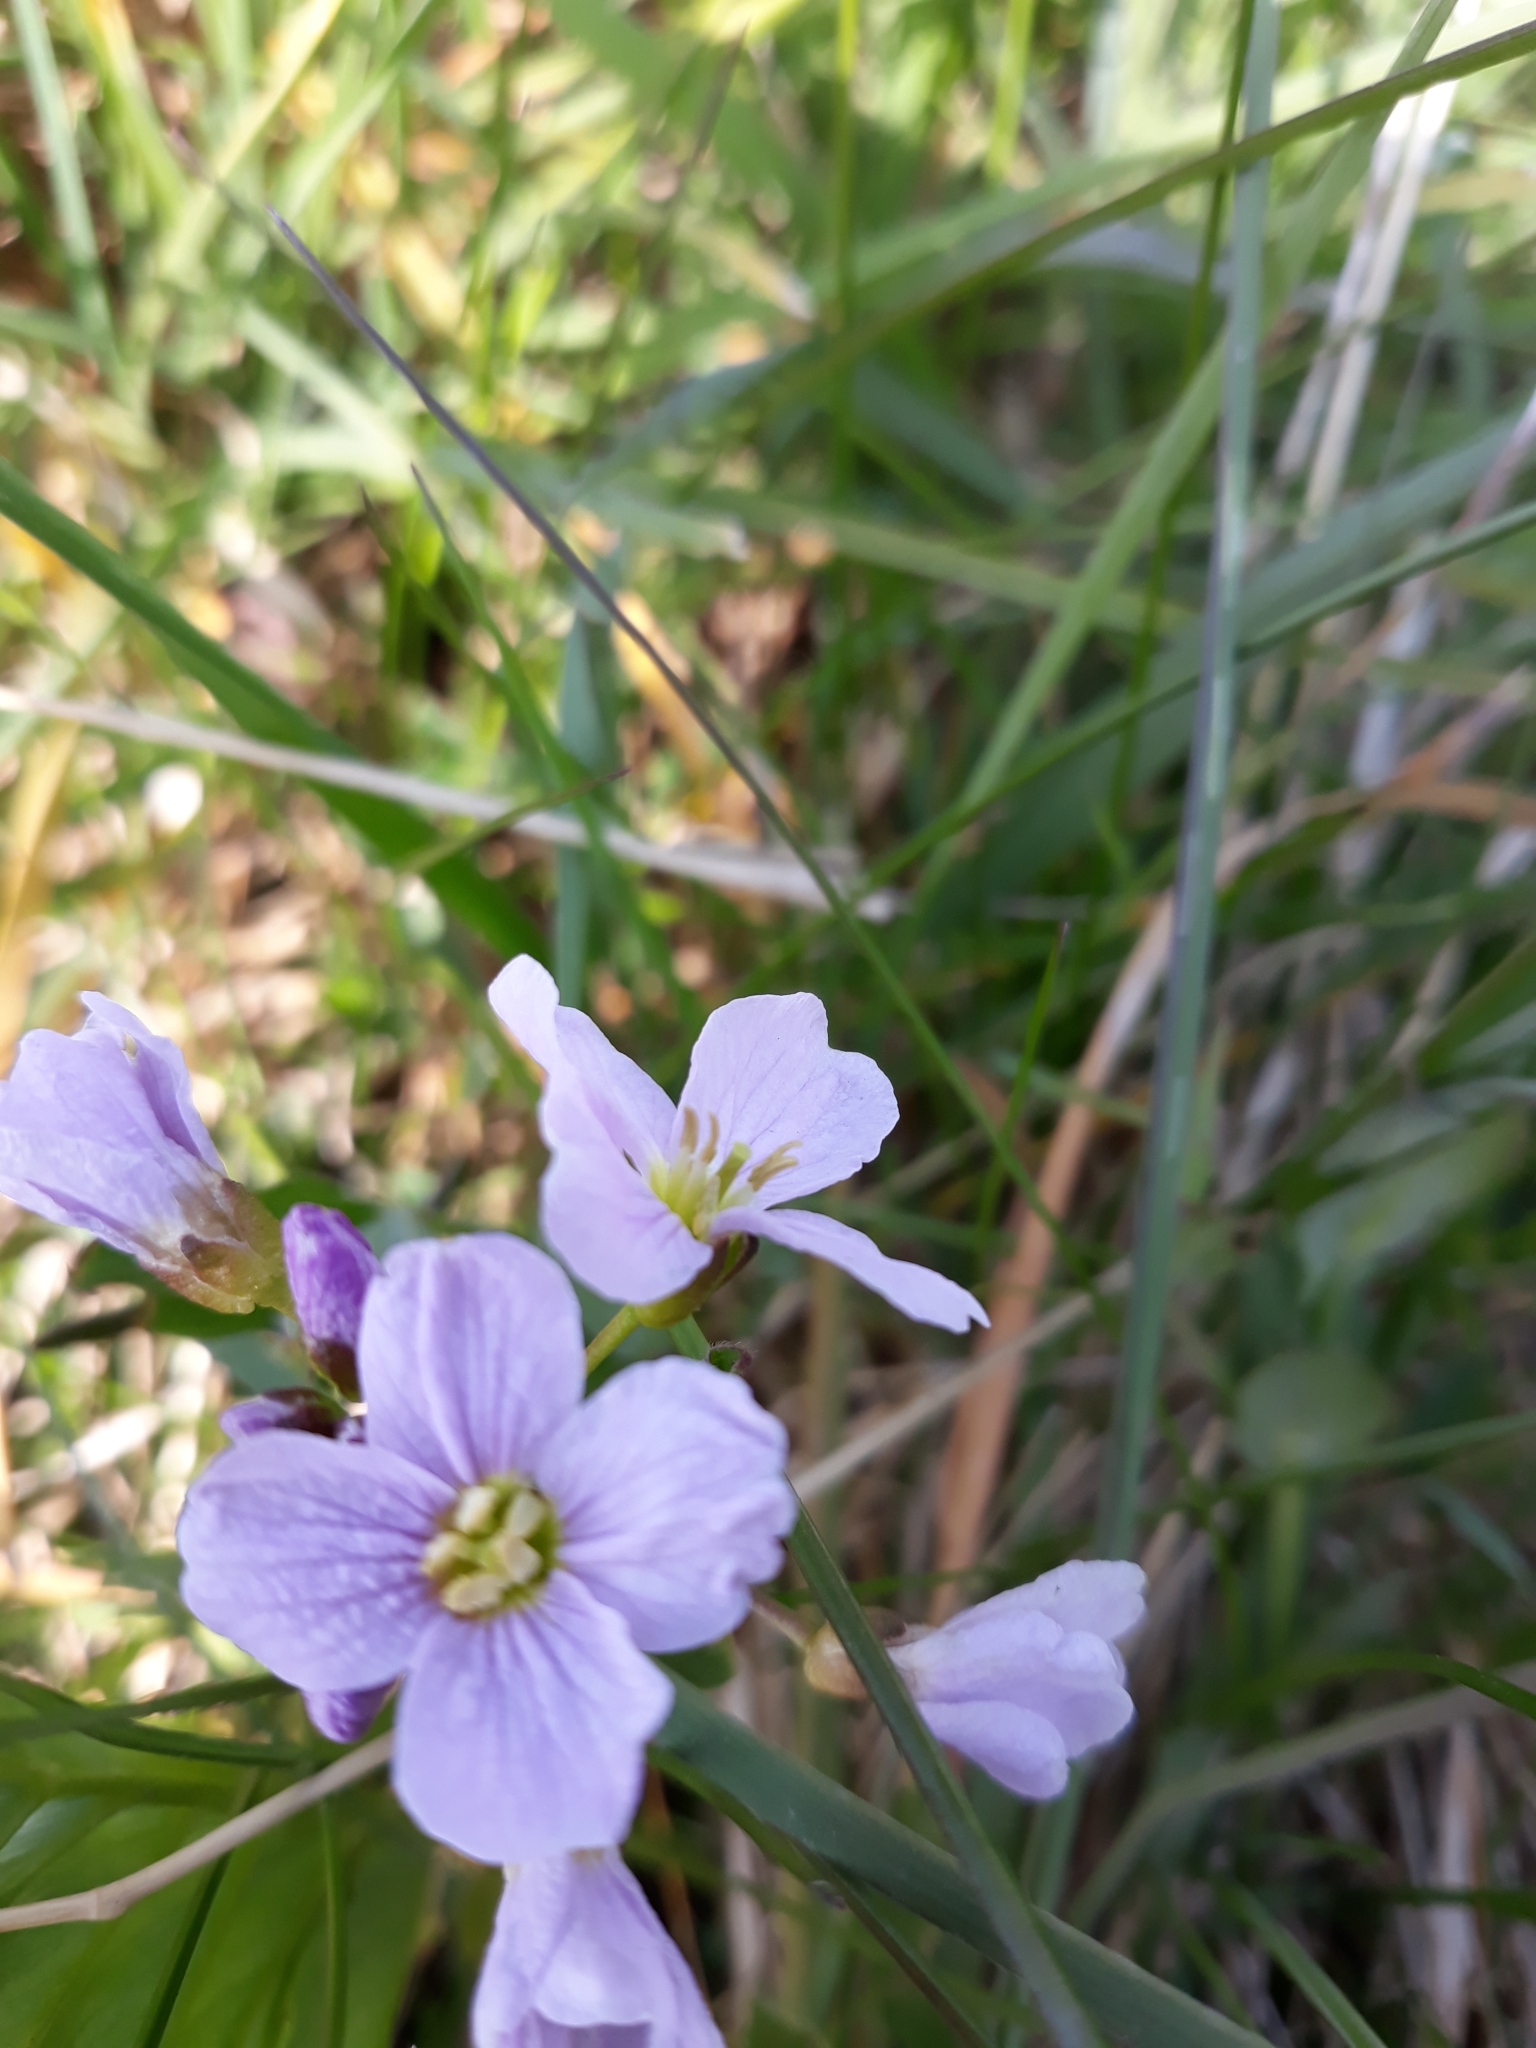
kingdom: Plantae
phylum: Tracheophyta
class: Magnoliopsida
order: Brassicales
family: Brassicaceae
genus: Cardamine
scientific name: Cardamine pratensis
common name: Cuckoo flower
